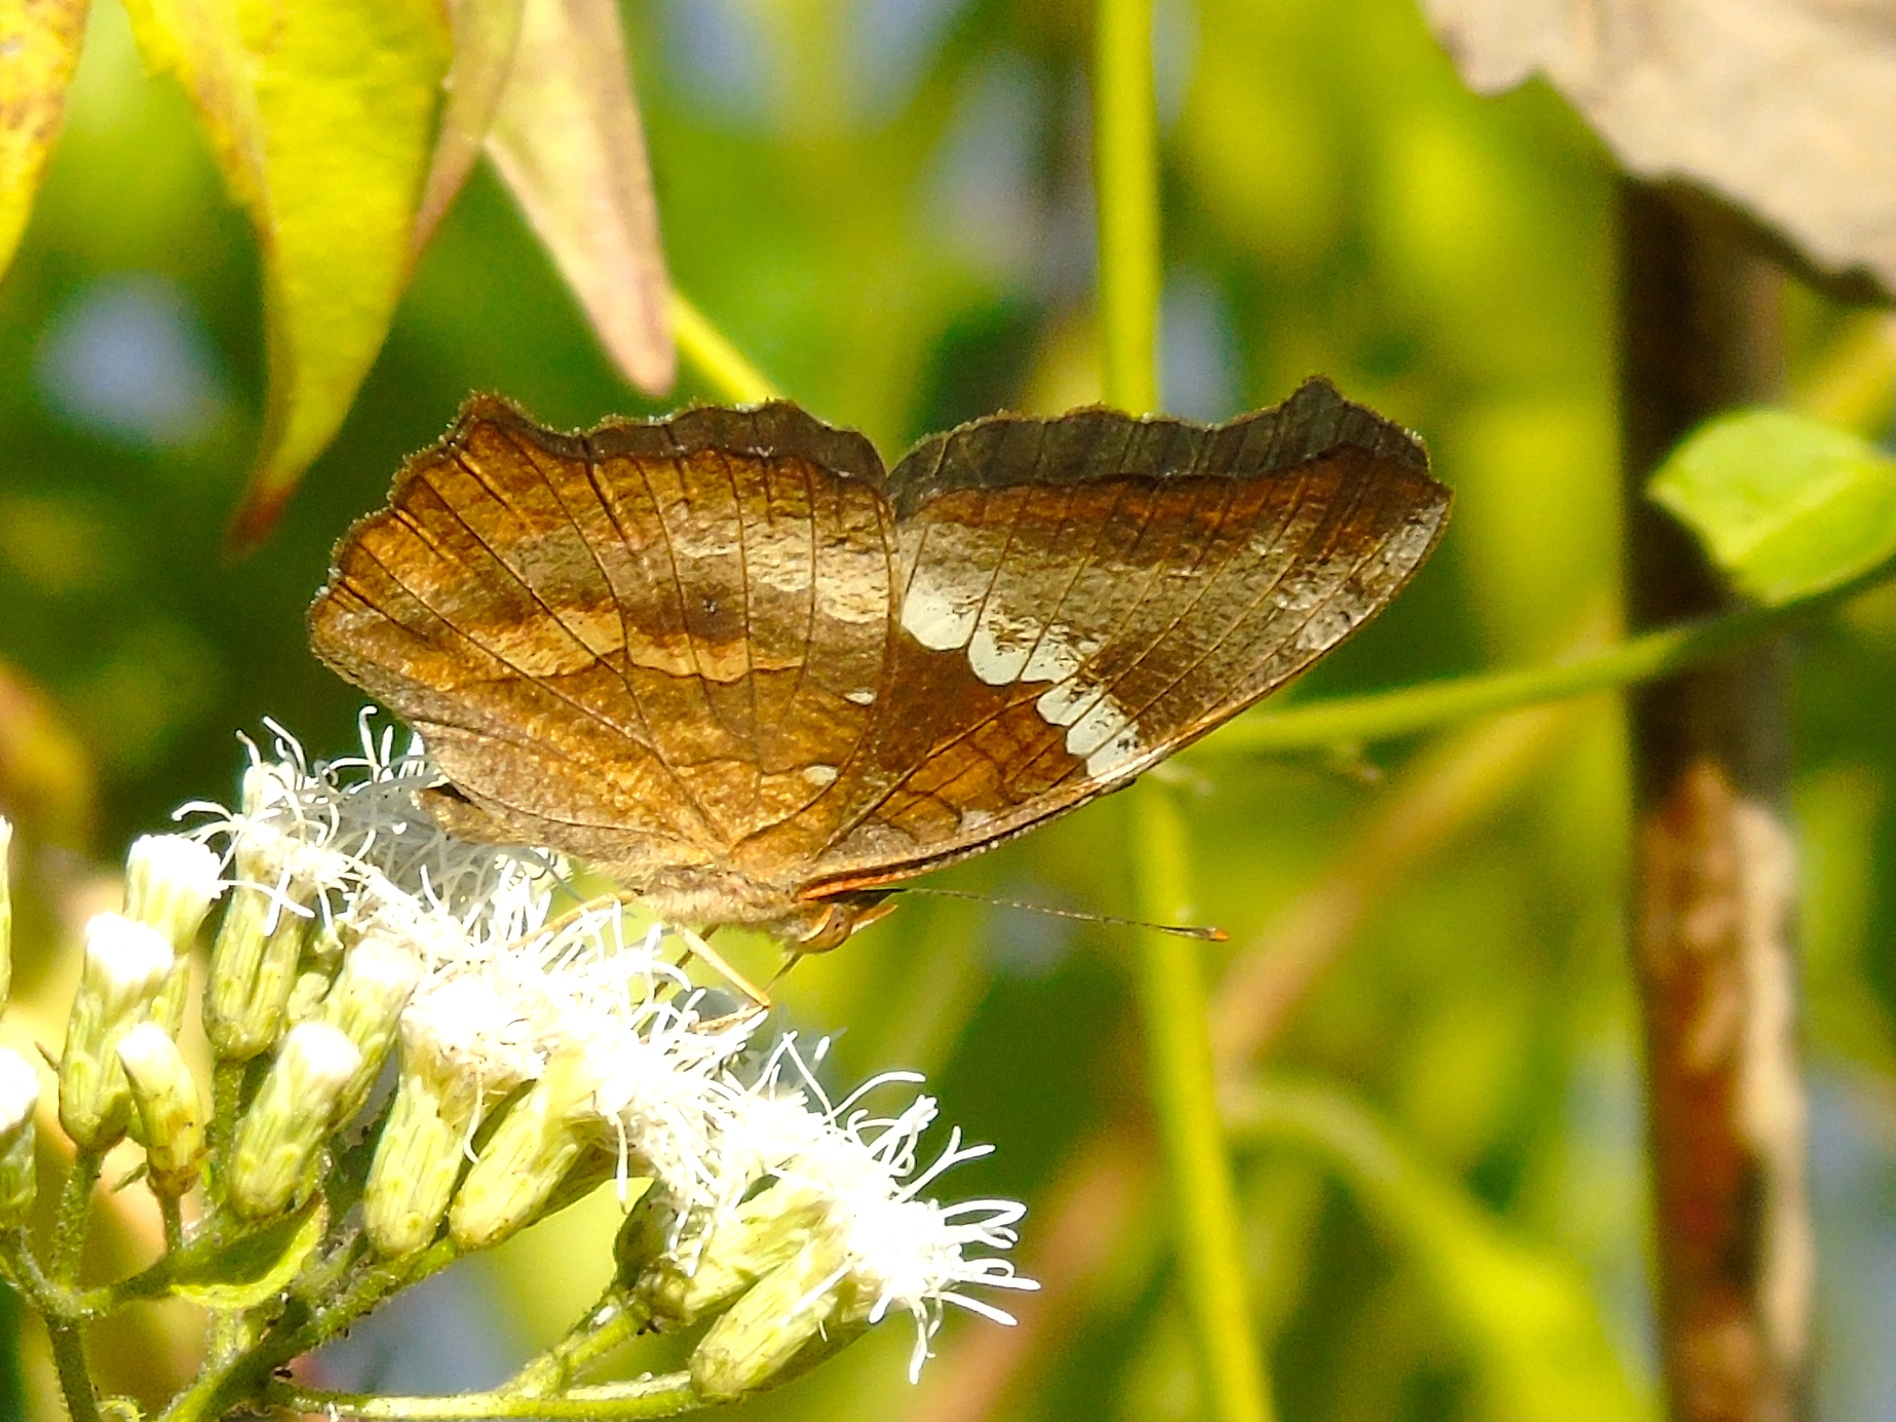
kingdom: Animalia
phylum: Arthropoda
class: Insecta
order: Lepidoptera
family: Nymphalidae
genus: Anartia
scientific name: Anartia fatima
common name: Banded peacock
